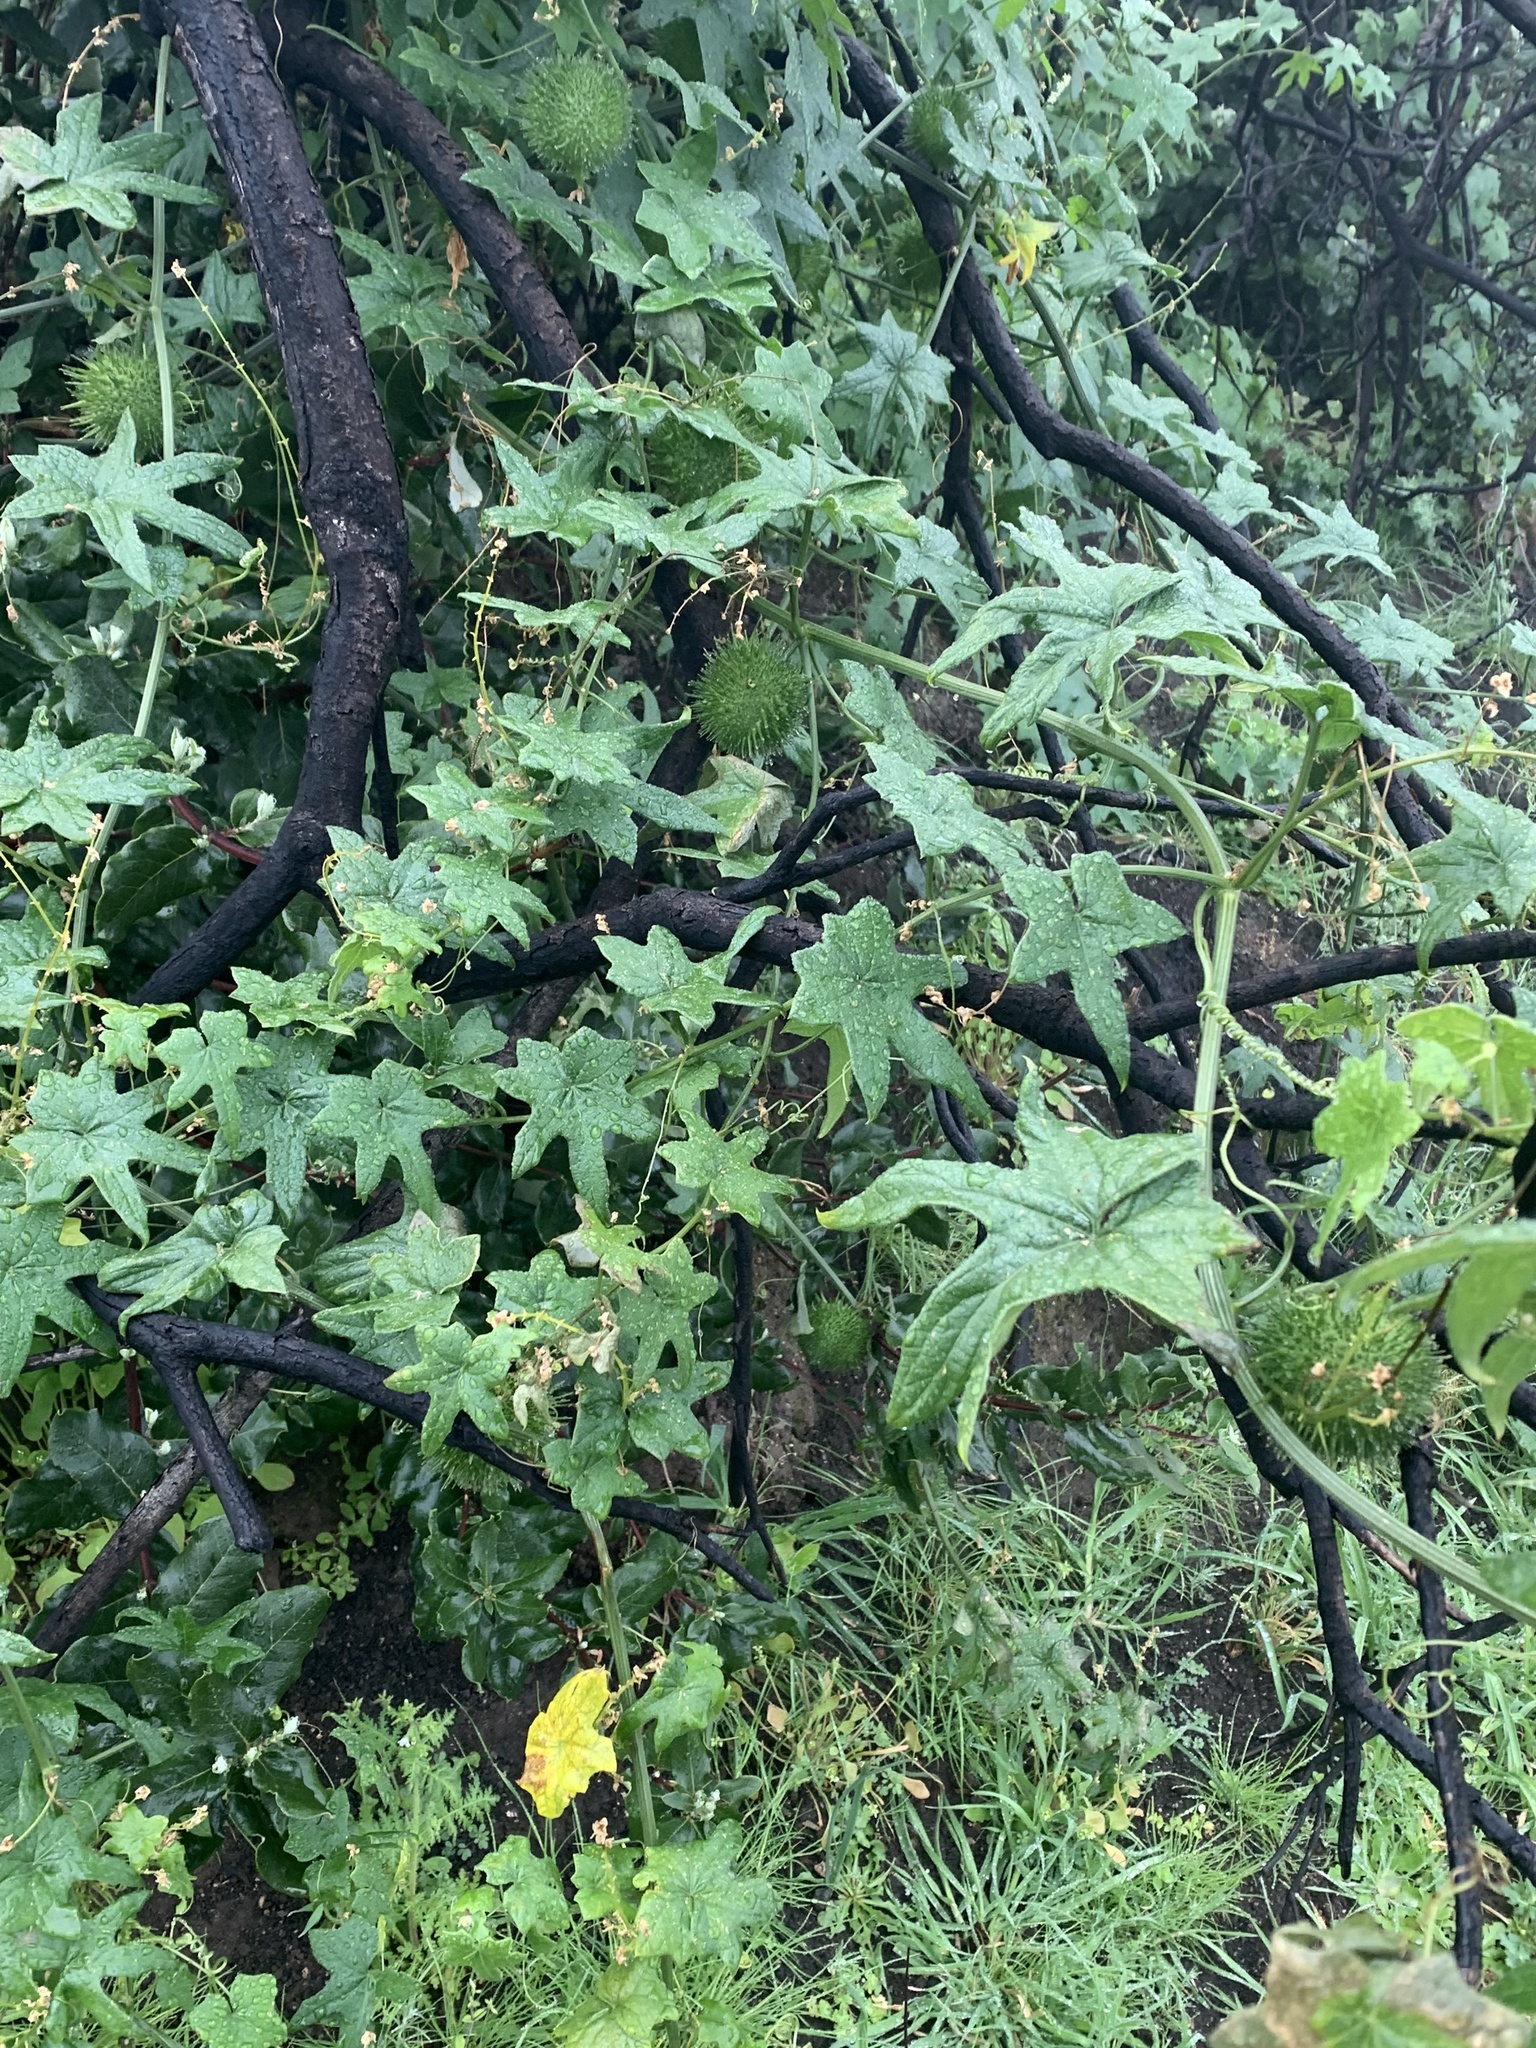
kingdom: Plantae
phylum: Tracheophyta
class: Magnoliopsida
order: Cucurbitales
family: Cucurbitaceae
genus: Marah
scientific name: Marah fabacea
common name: California manroot
